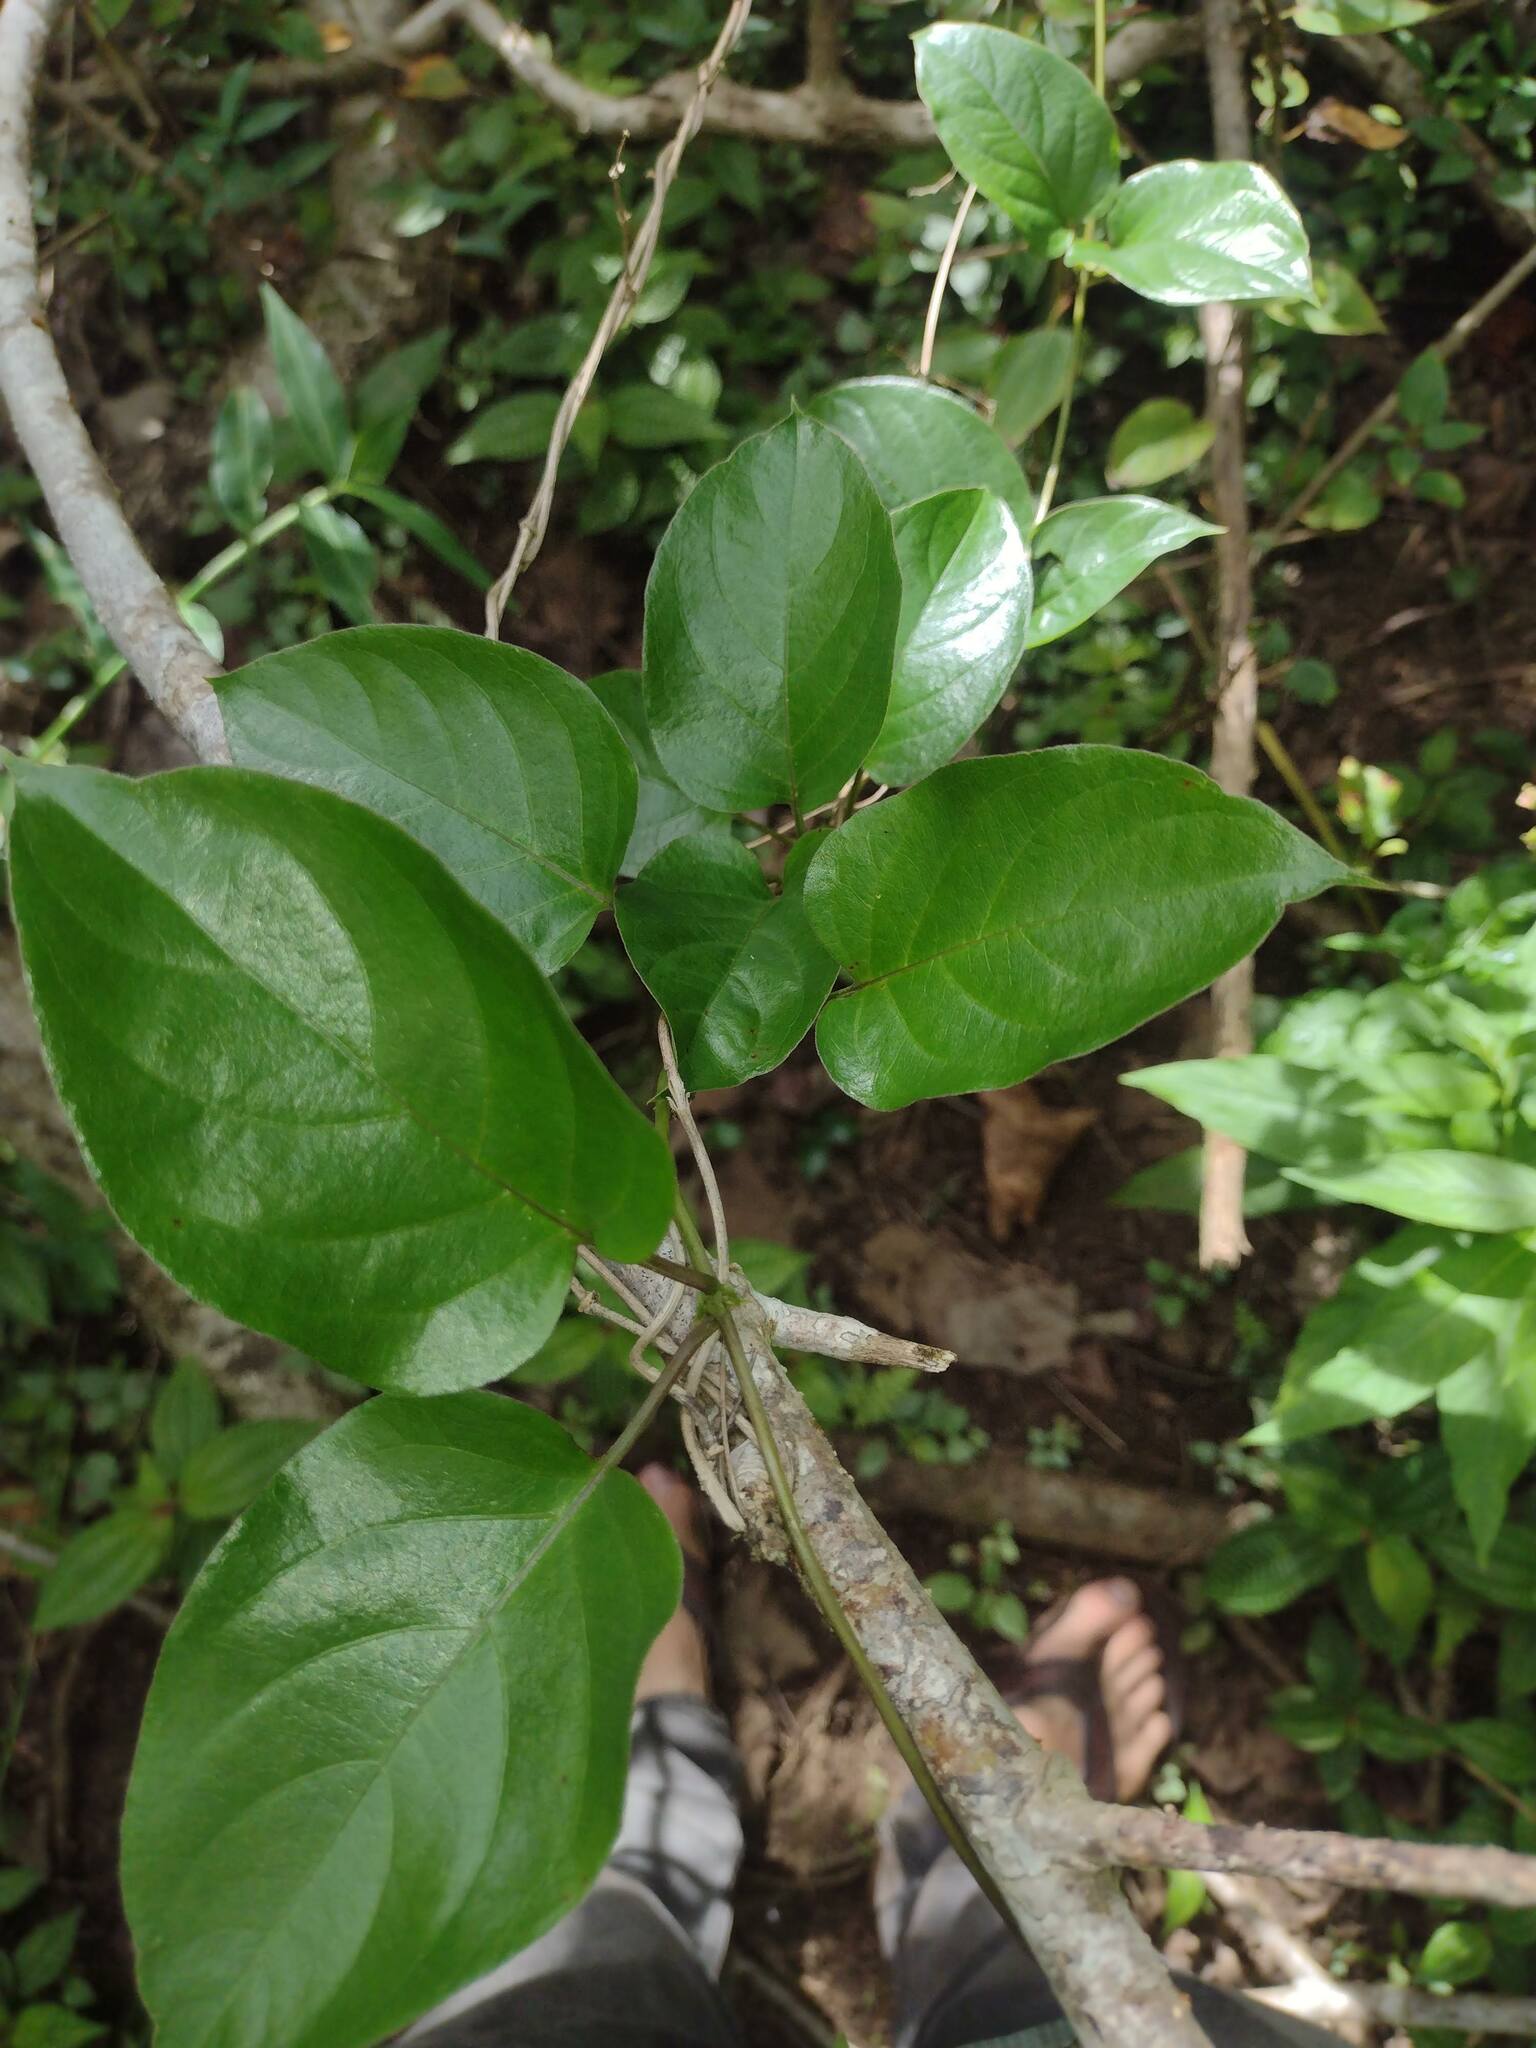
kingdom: Plantae
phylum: Tracheophyta
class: Magnoliopsida
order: Gentianales
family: Rubiaceae
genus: Paederia
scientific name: Paederia foetida
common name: Stinkvine
